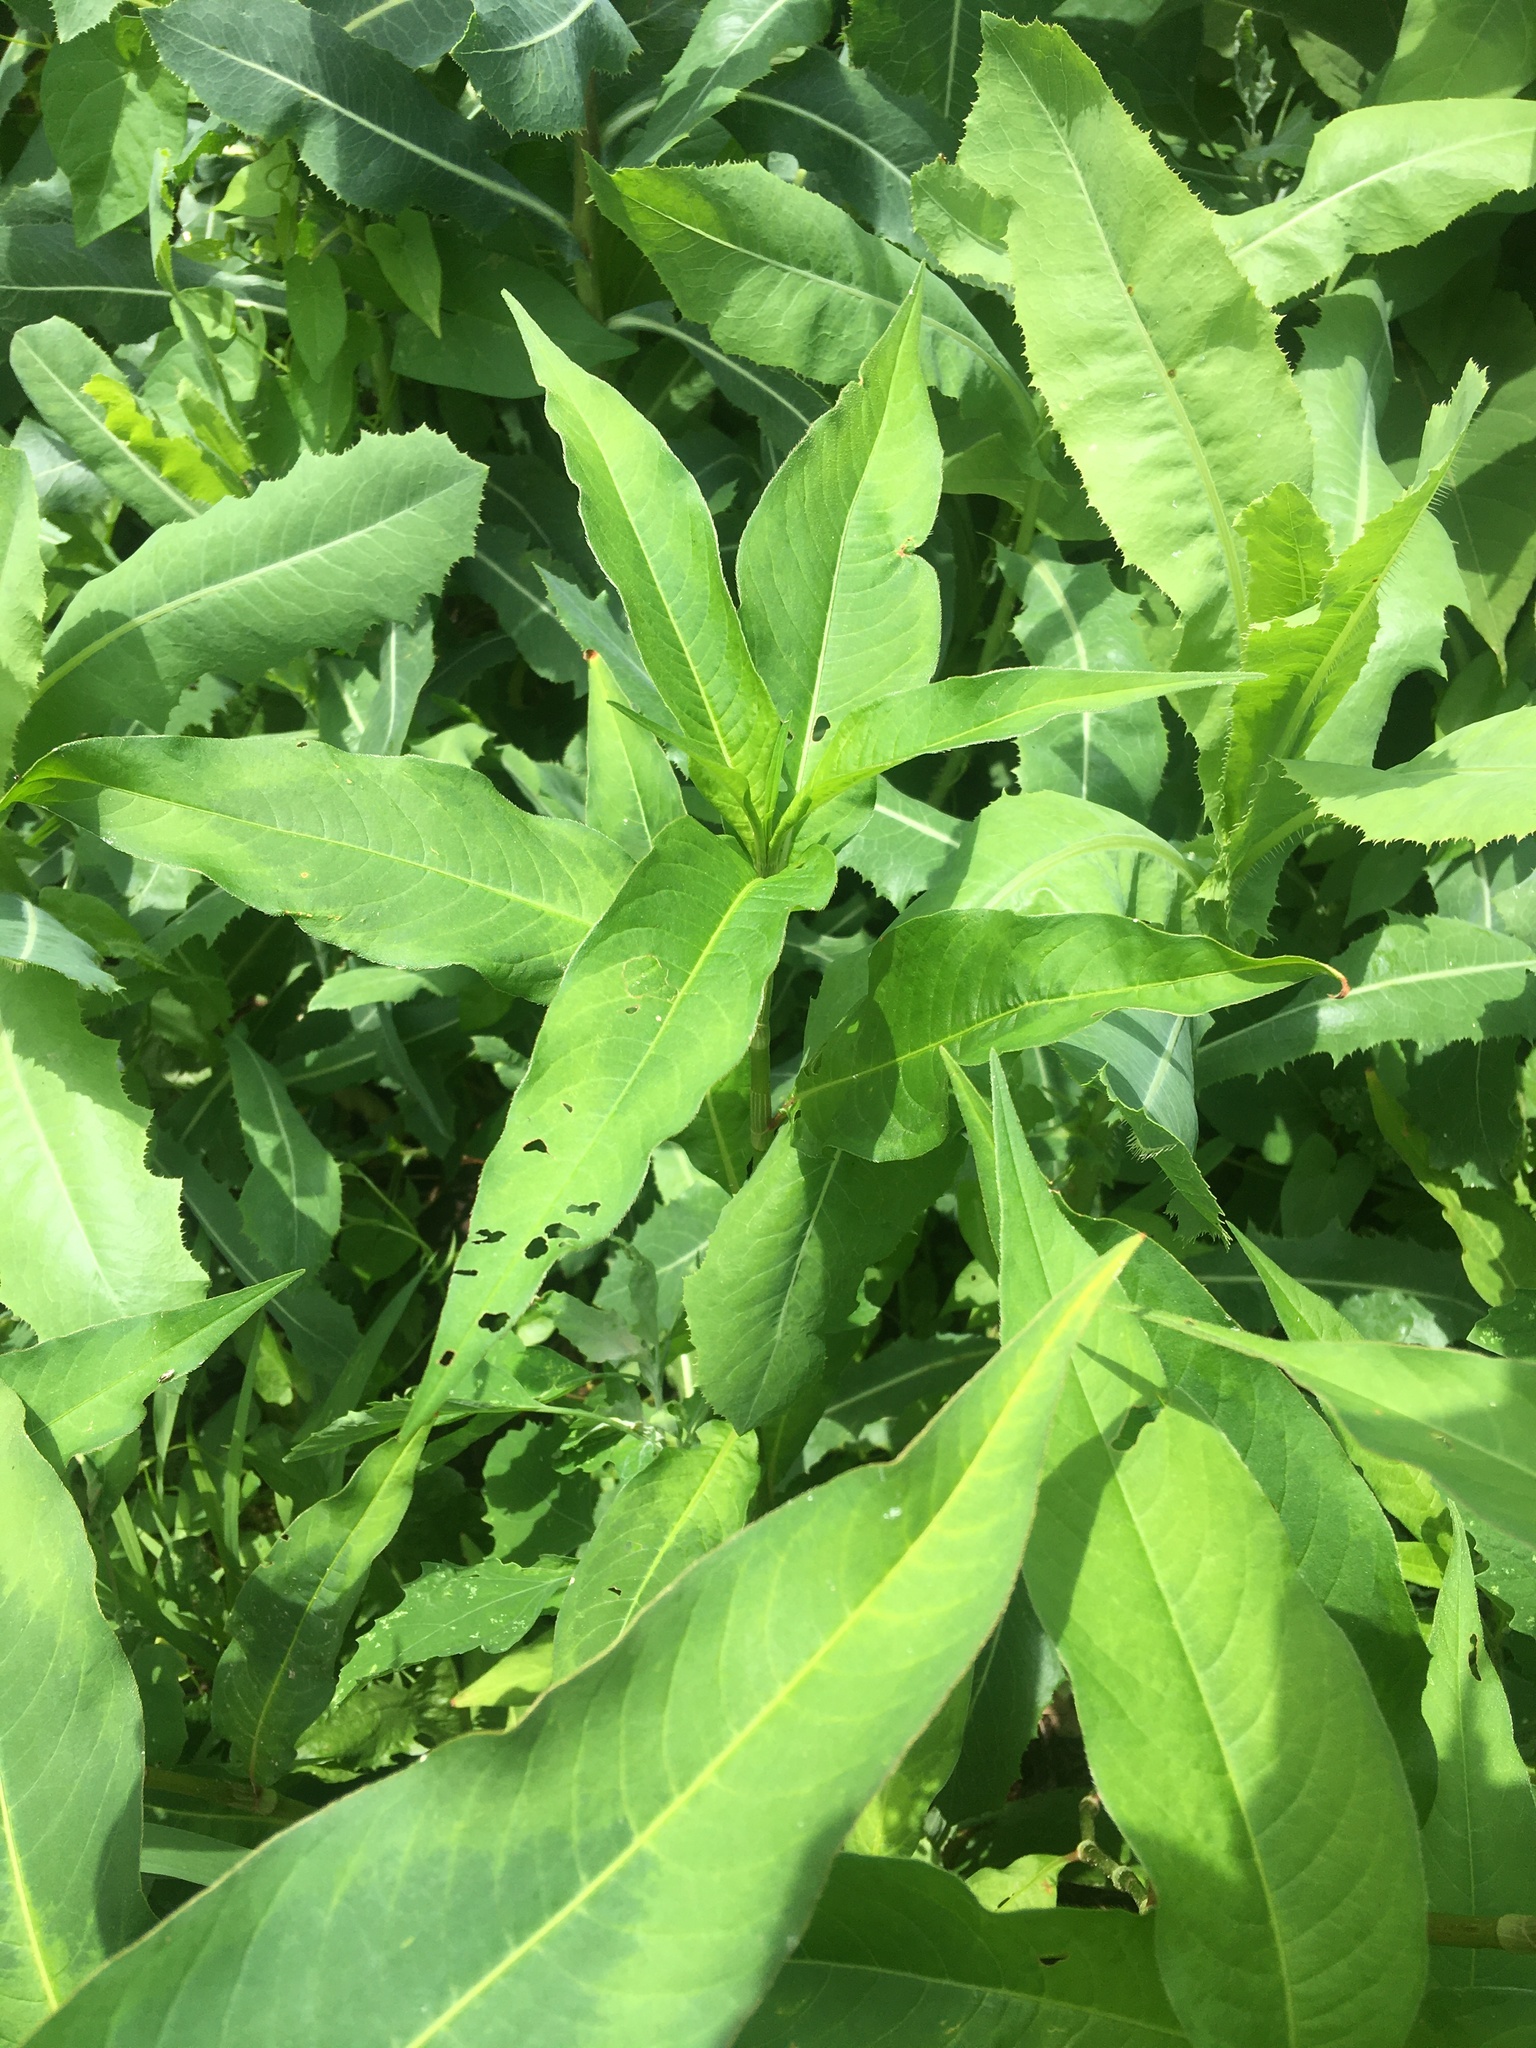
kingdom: Plantae
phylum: Tracheophyta
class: Magnoliopsida
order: Caryophyllales
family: Polygonaceae
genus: Persicaria
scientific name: Persicaria extremiorientalis
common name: Far-eastern smartweed
